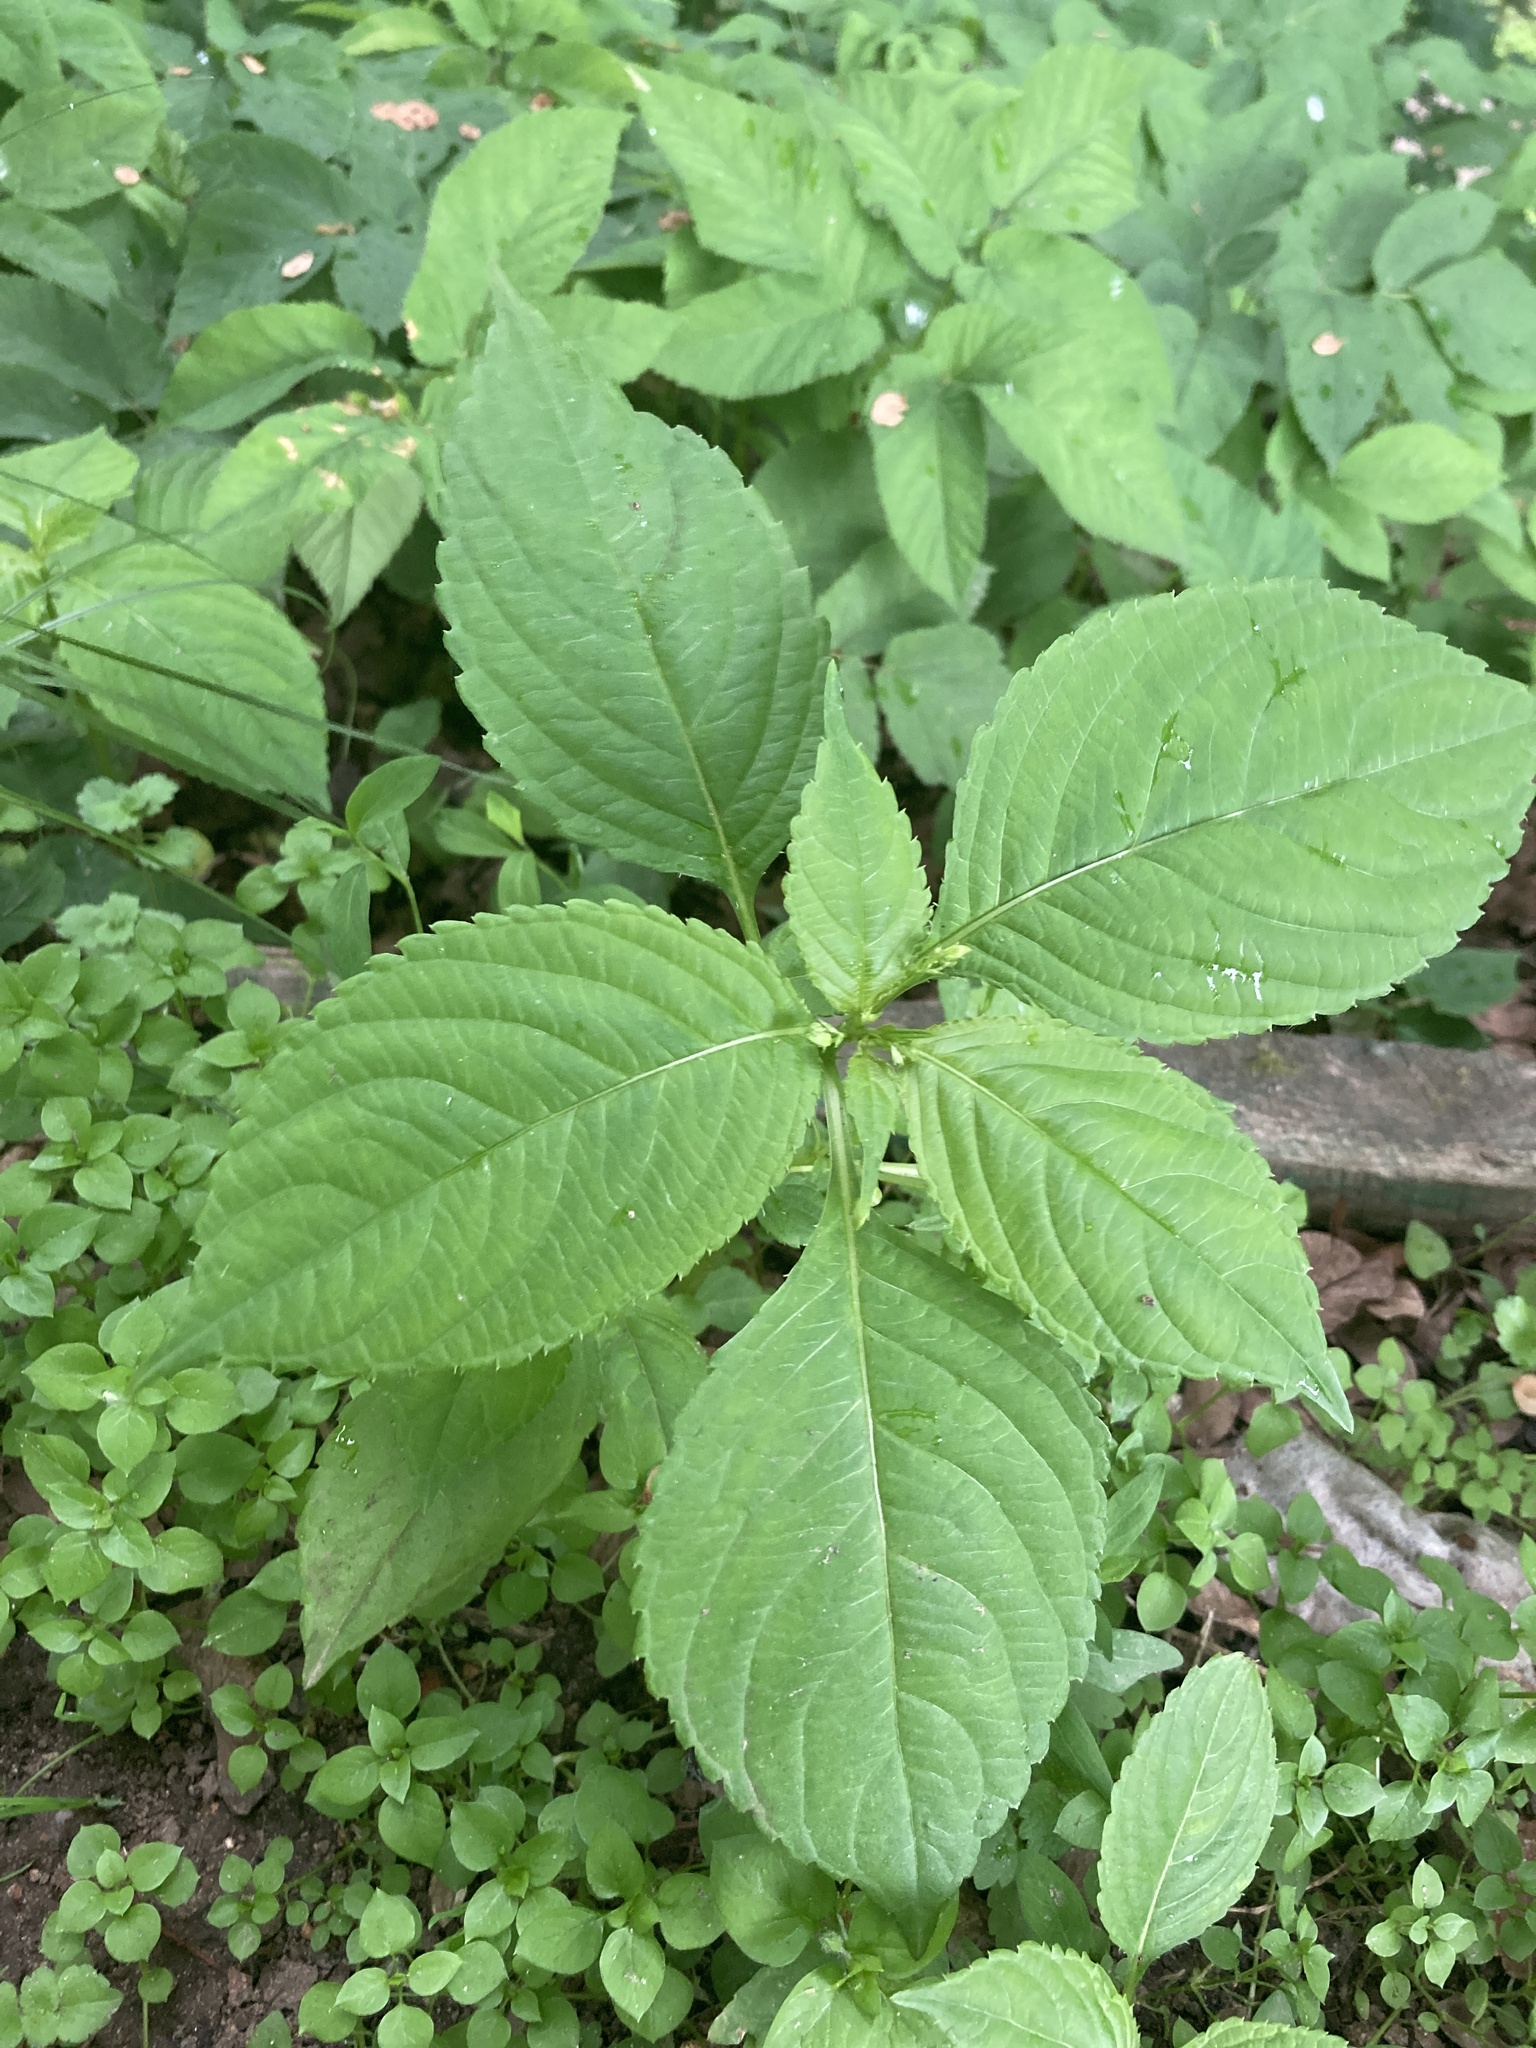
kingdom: Plantae
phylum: Tracheophyta
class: Magnoliopsida
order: Ericales
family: Balsaminaceae
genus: Impatiens
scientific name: Impatiens parviflora
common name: Small balsam
